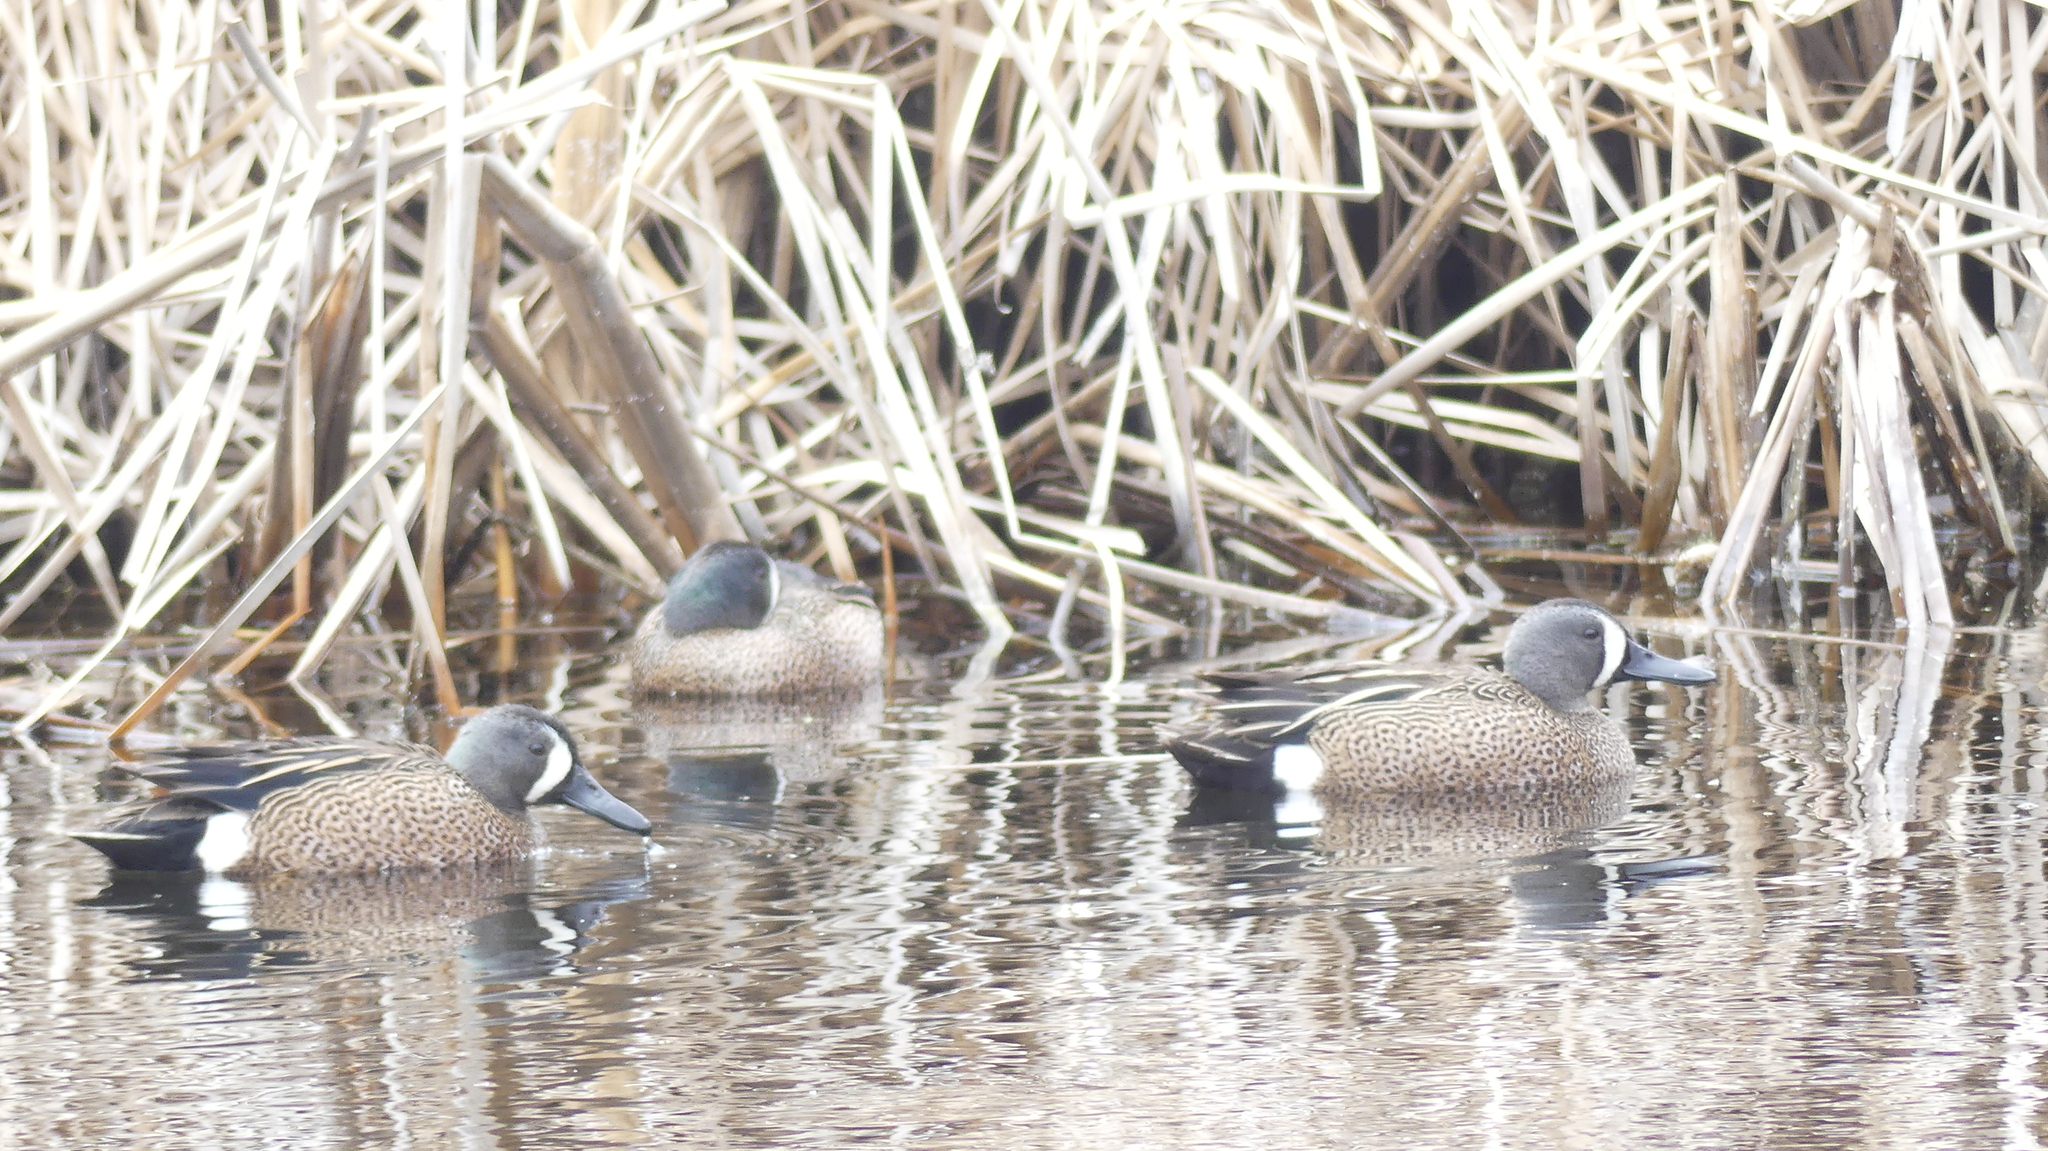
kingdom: Animalia
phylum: Chordata
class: Aves
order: Anseriformes
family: Anatidae
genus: Spatula
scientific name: Spatula discors
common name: Blue-winged teal
